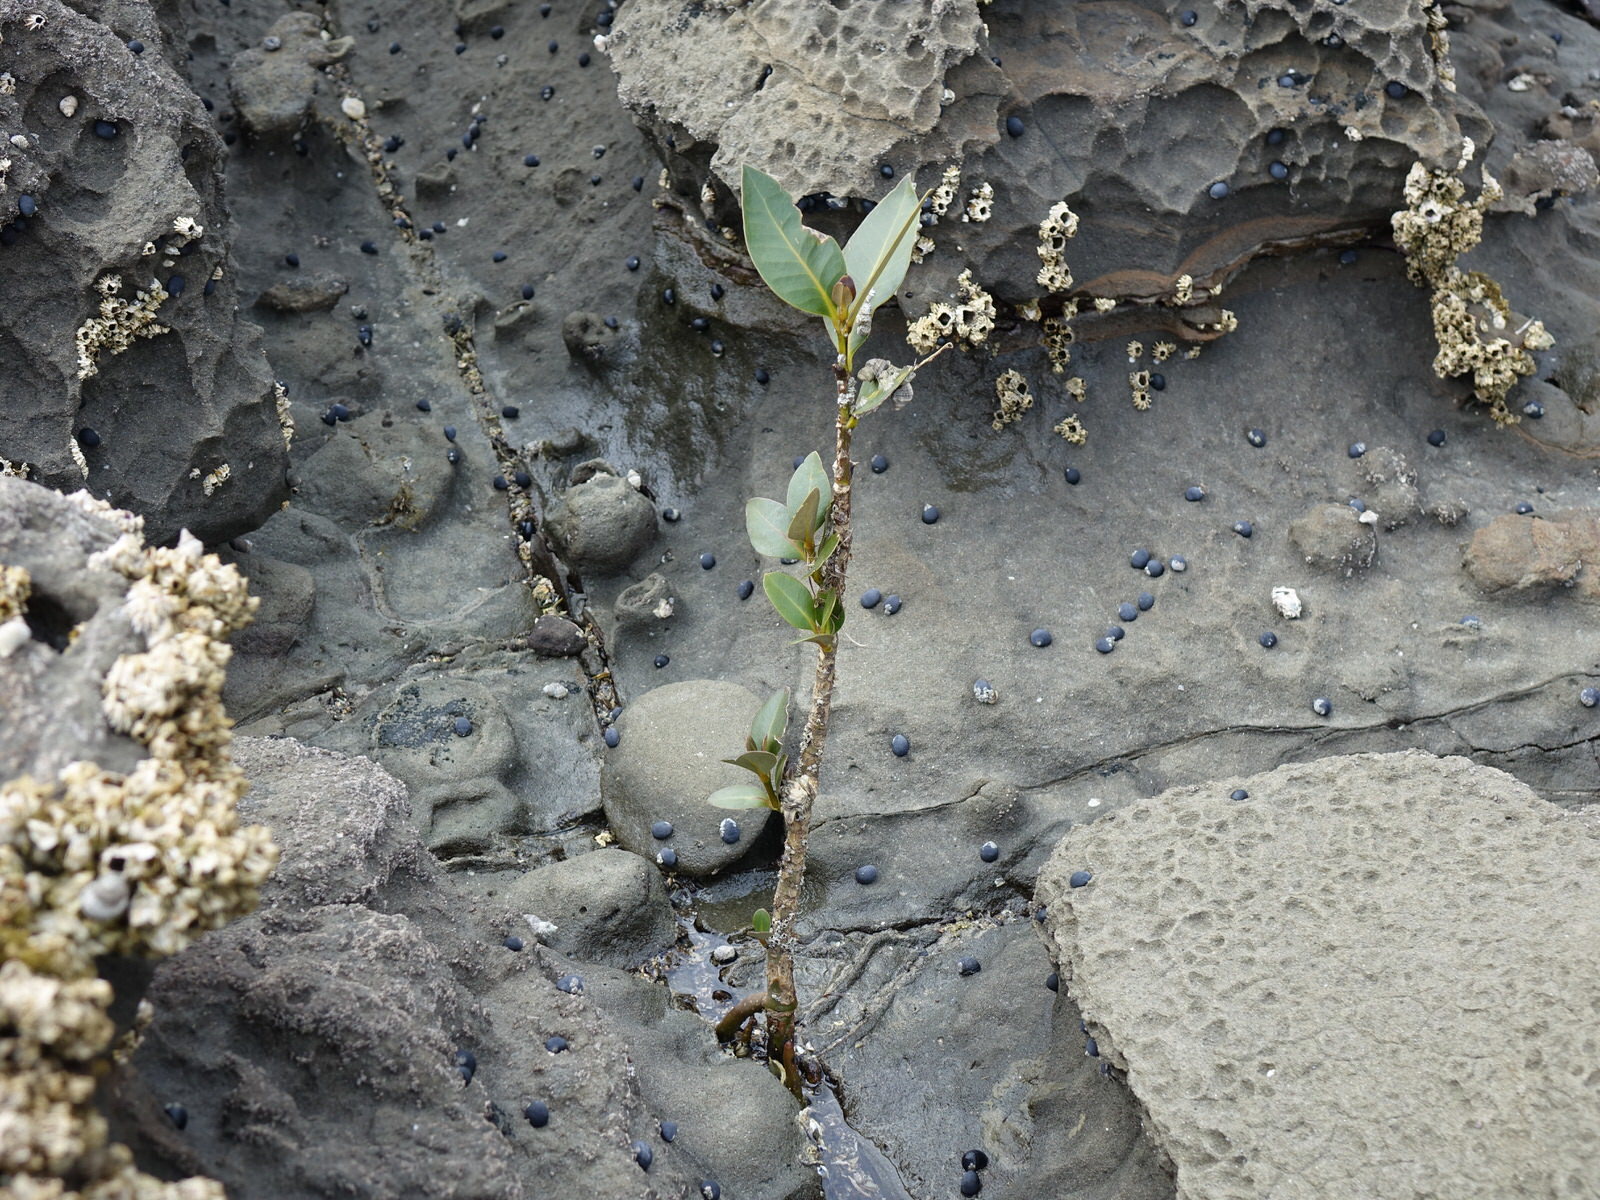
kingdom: Plantae
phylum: Tracheophyta
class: Magnoliopsida
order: Lamiales
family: Acanthaceae
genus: Avicennia
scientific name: Avicennia marina
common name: Gray mangrove
